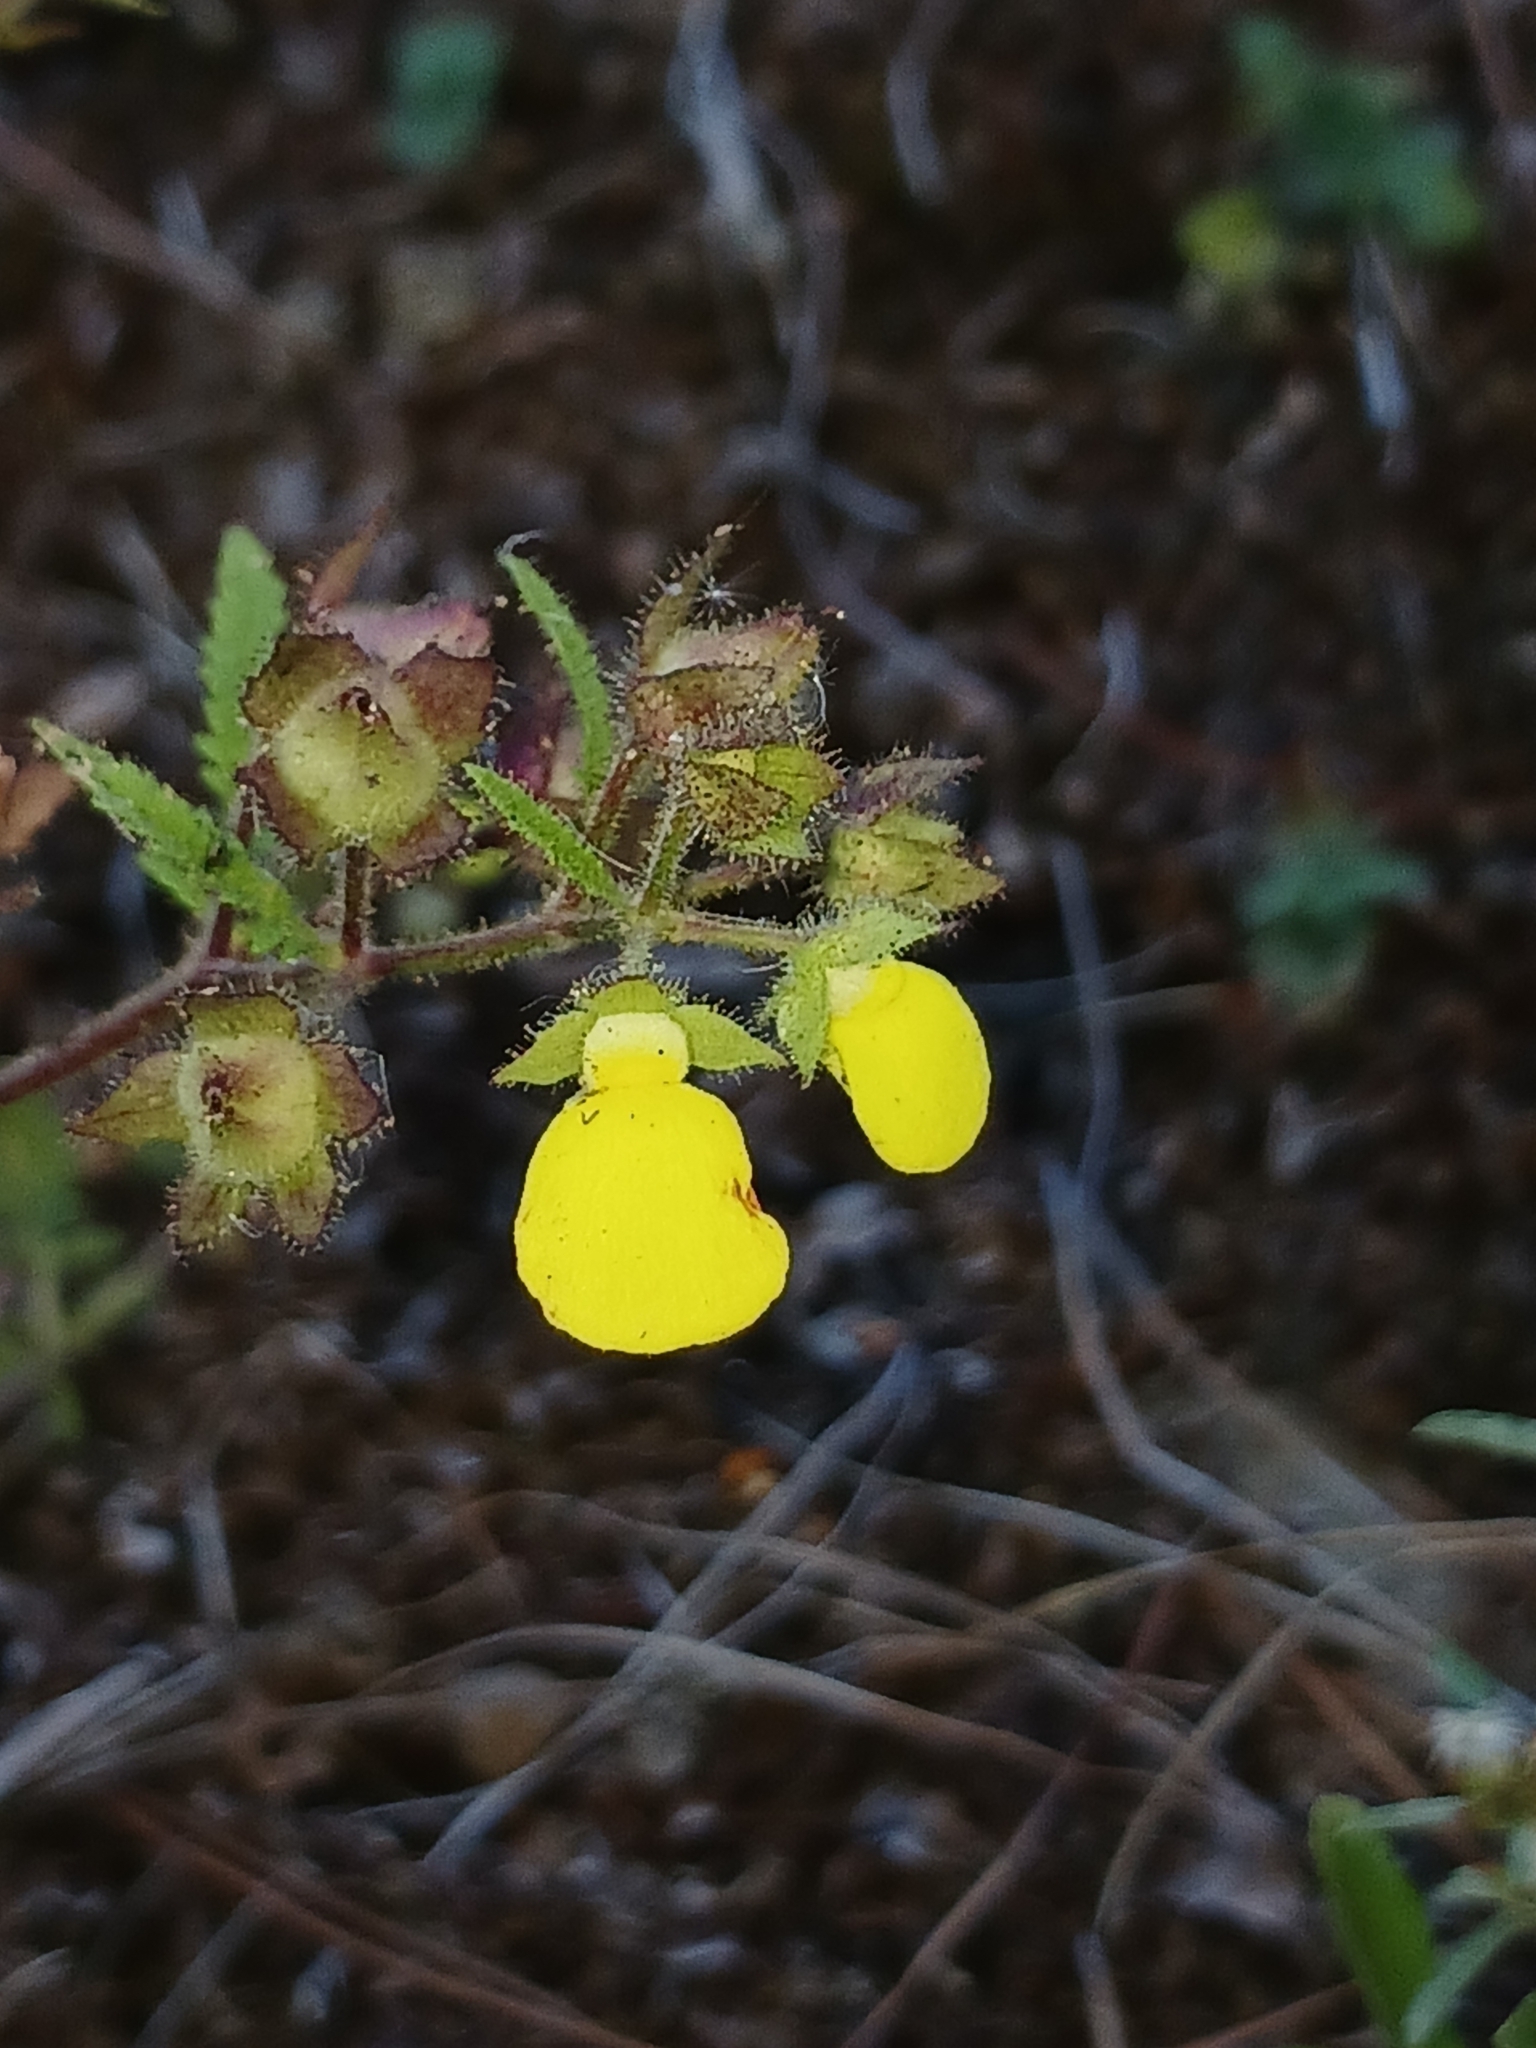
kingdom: Plantae
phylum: Tracheophyta
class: Magnoliopsida
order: Lamiales
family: Calceolariaceae
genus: Calceolaria
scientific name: Calceolaria tripartita
